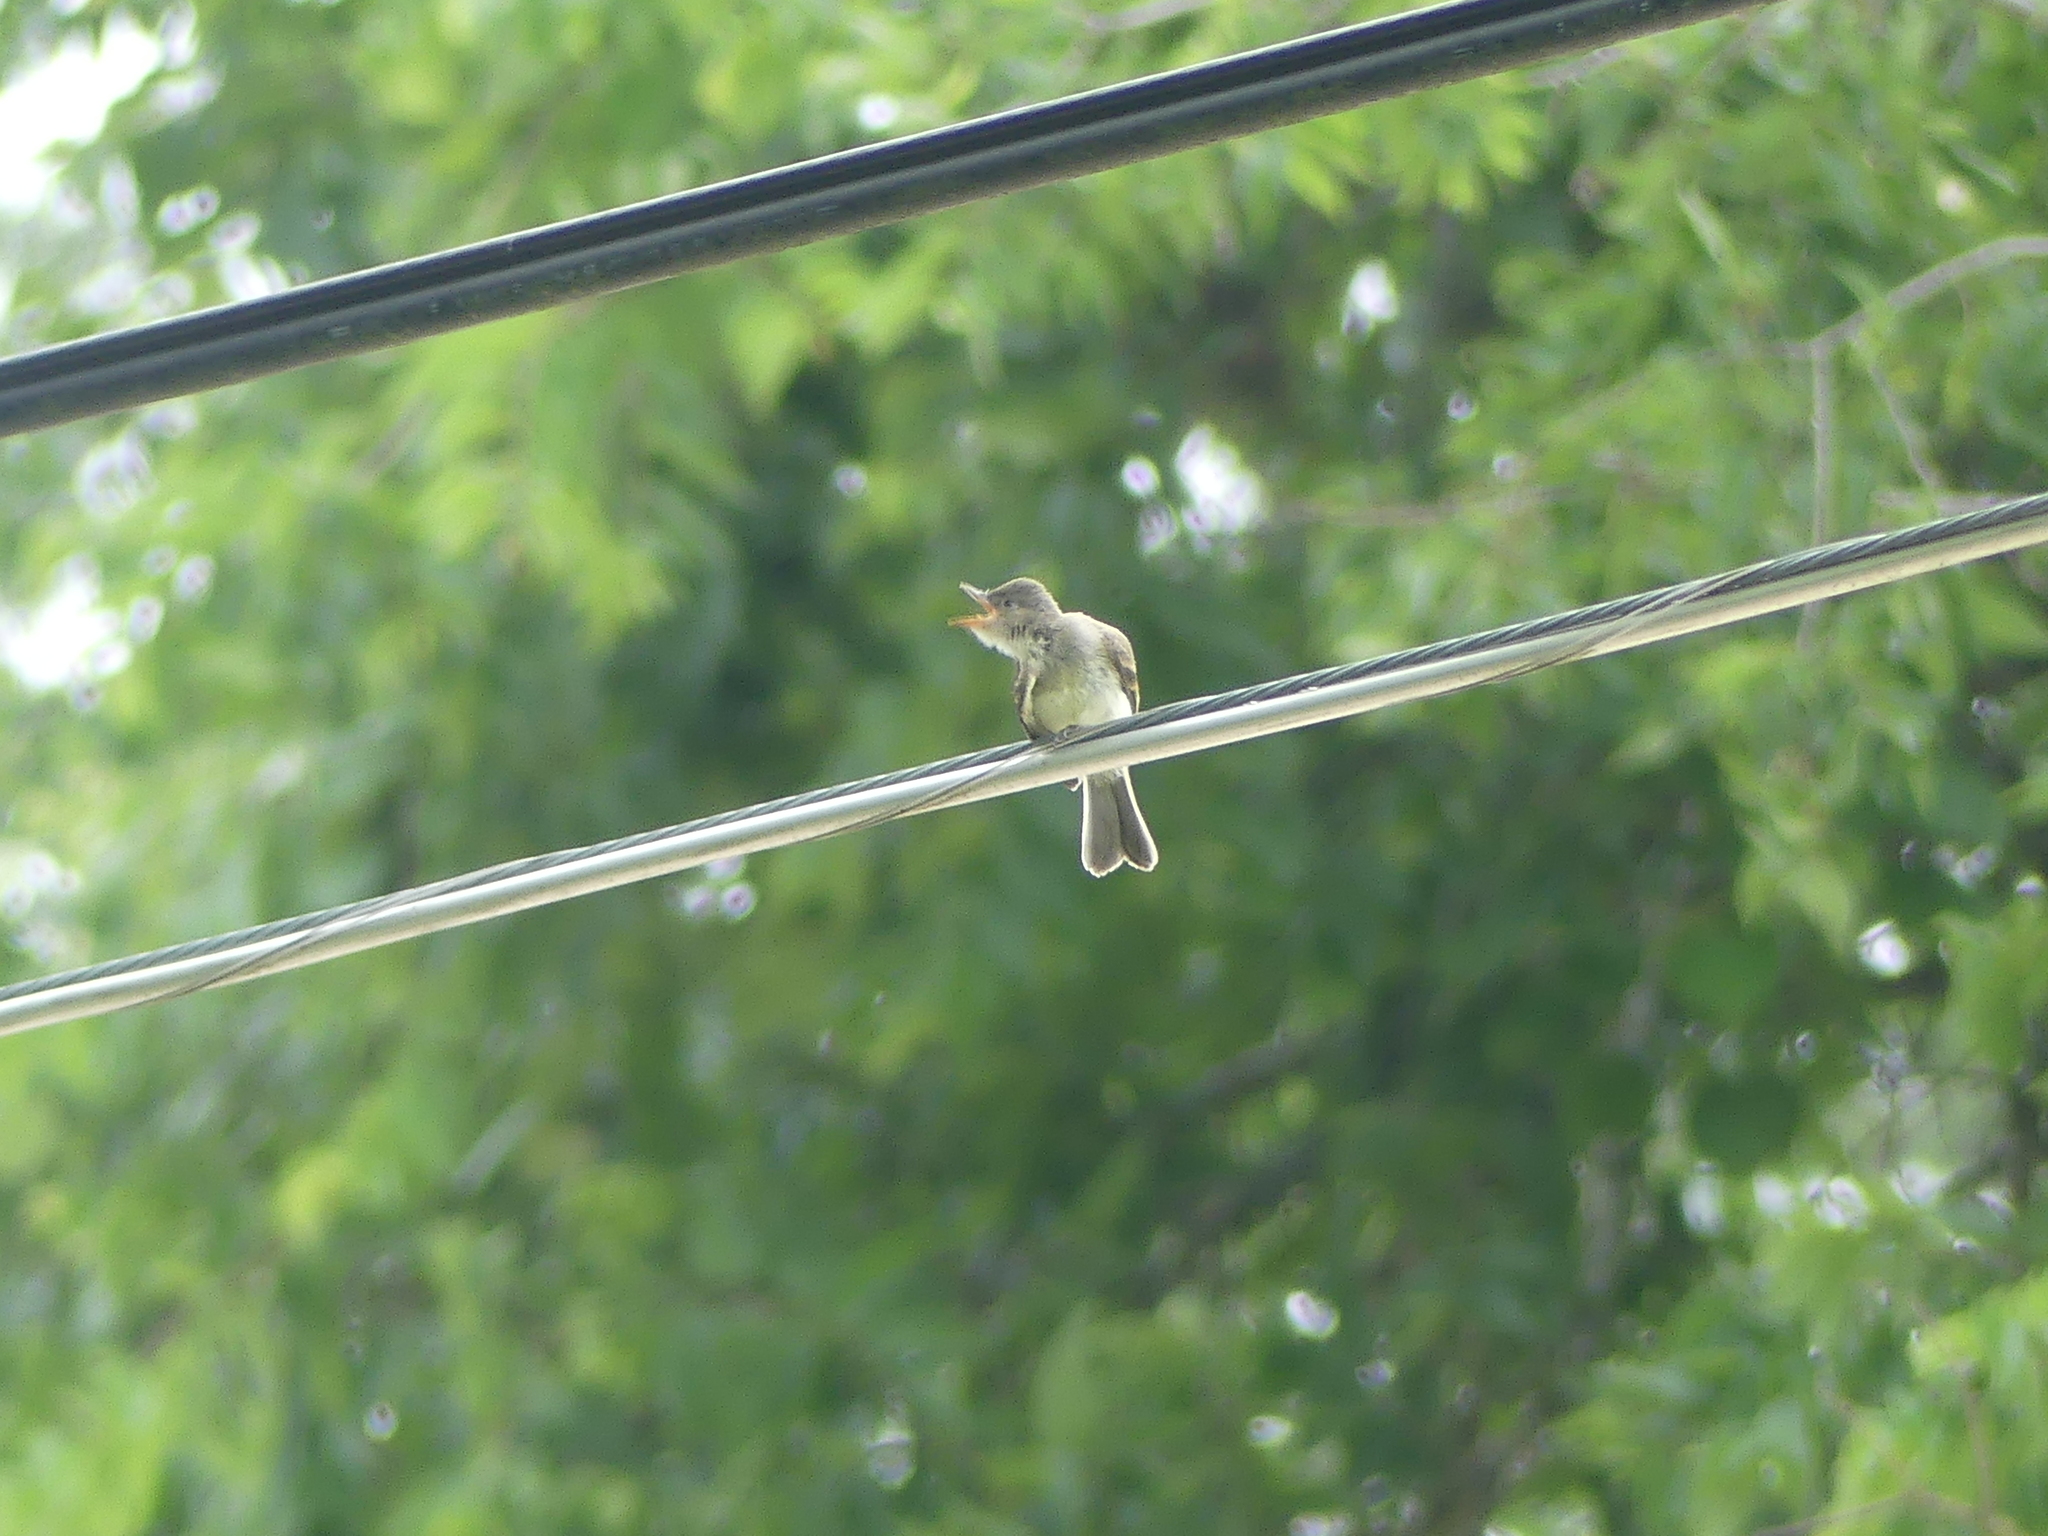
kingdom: Animalia
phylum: Chordata
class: Aves
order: Passeriformes
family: Tyrannidae
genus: Sayornis
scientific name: Sayornis phoebe
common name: Eastern phoebe
